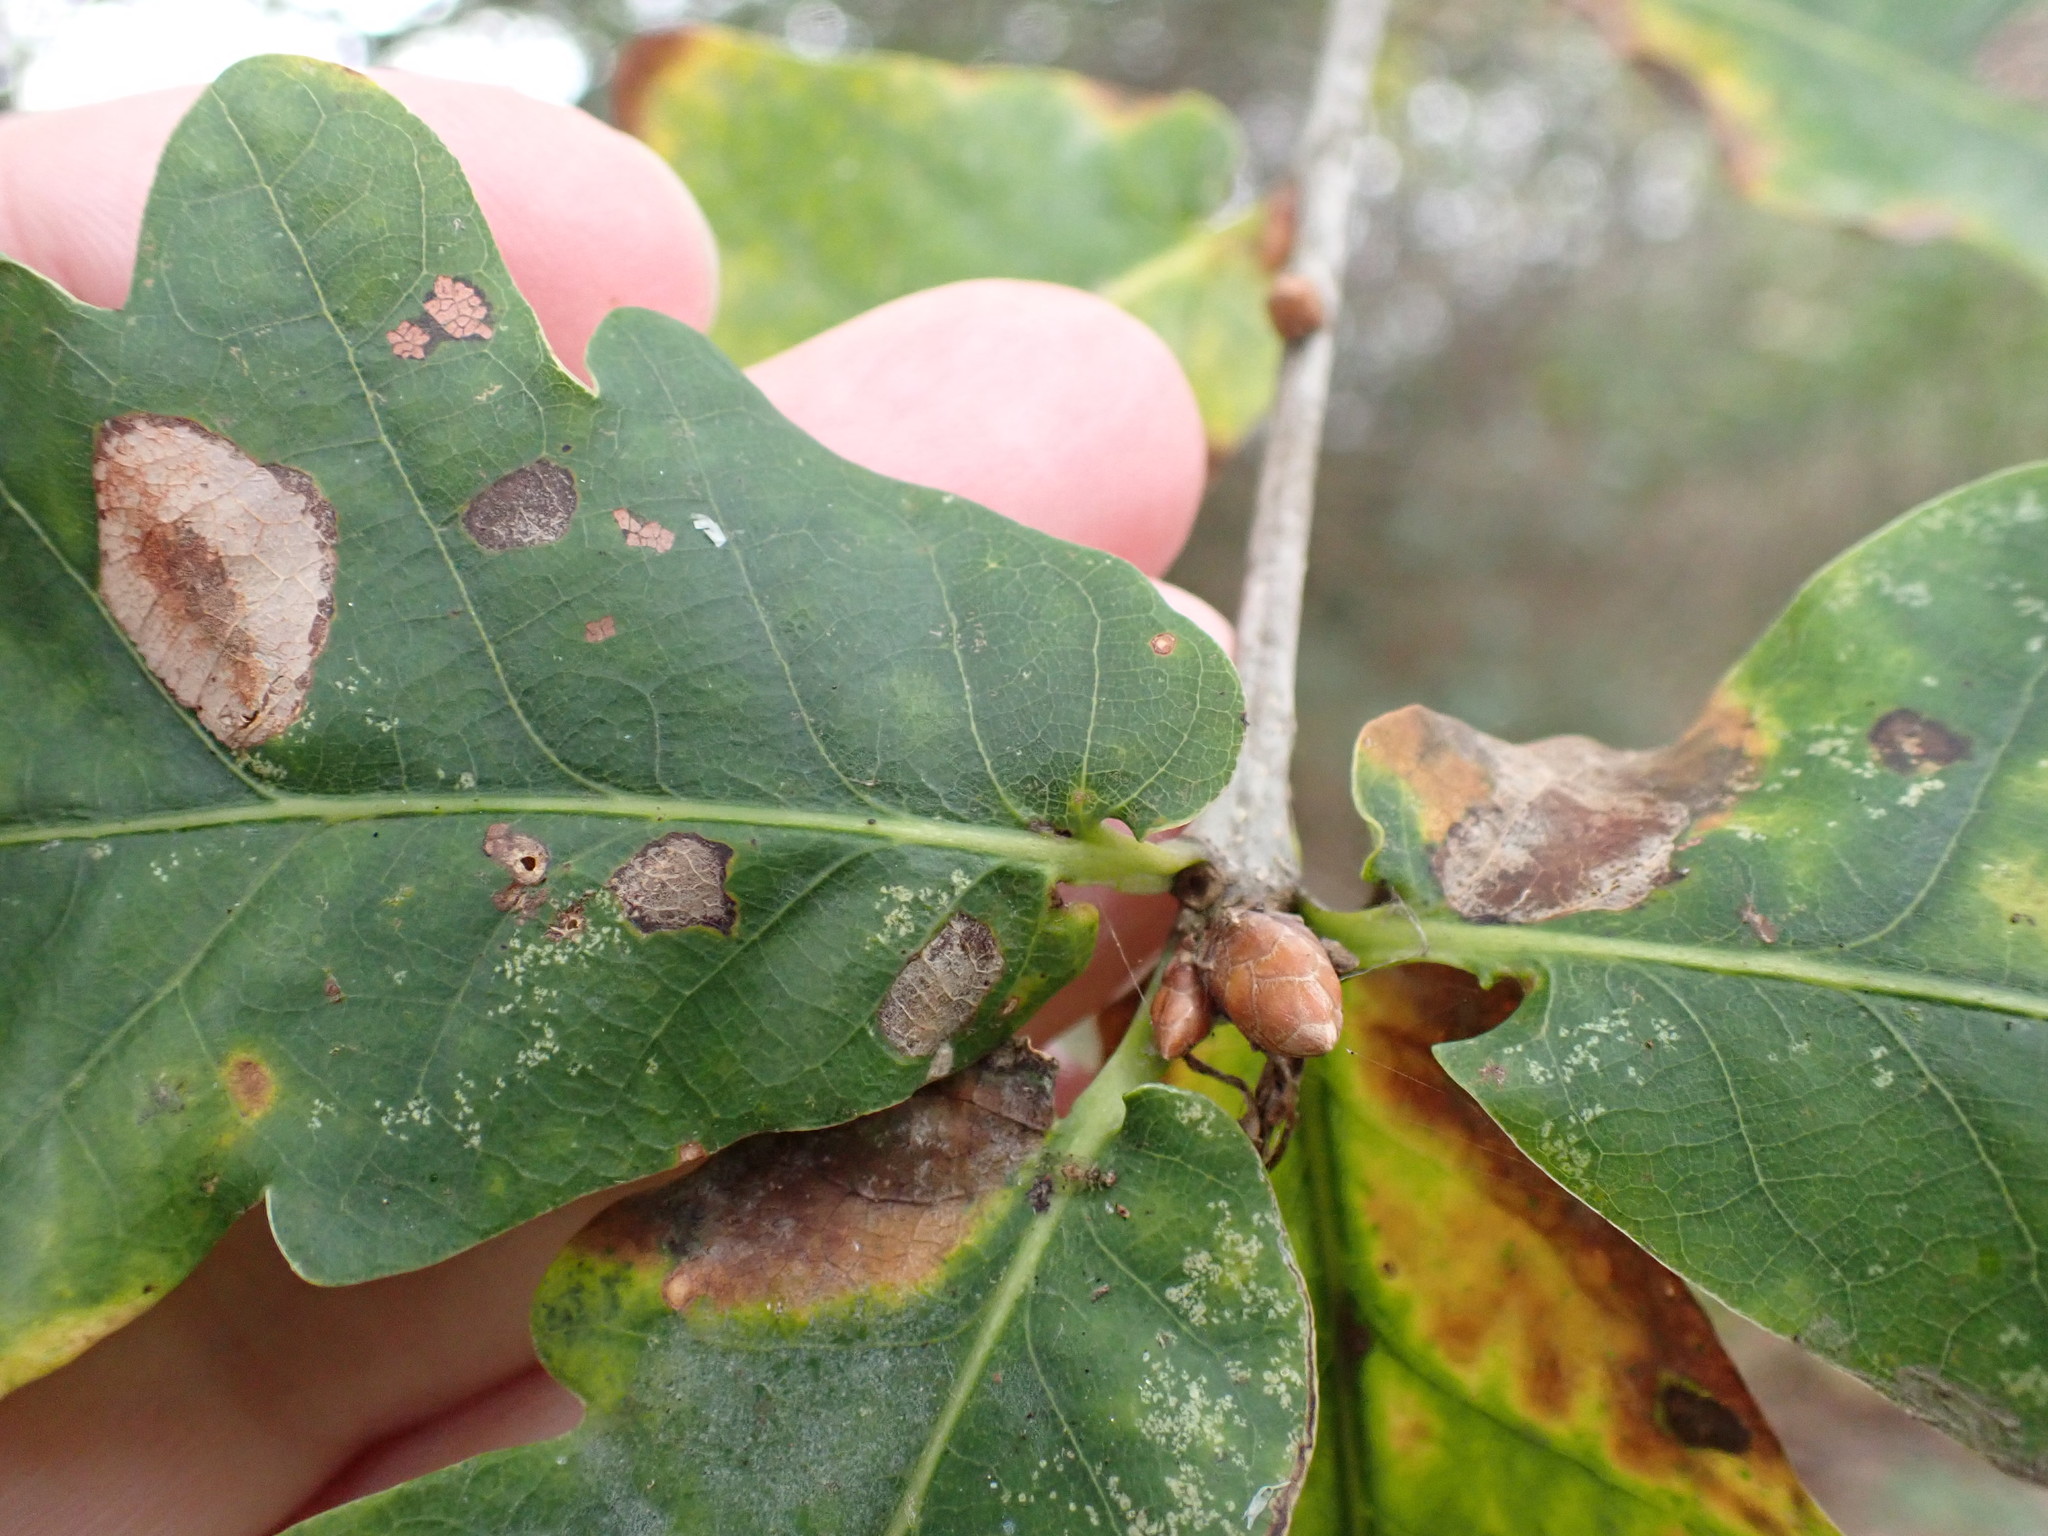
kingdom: Plantae
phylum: Tracheophyta
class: Magnoliopsida
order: Fagales
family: Fagaceae
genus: Quercus
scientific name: Quercus robur
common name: Pedunculate oak
